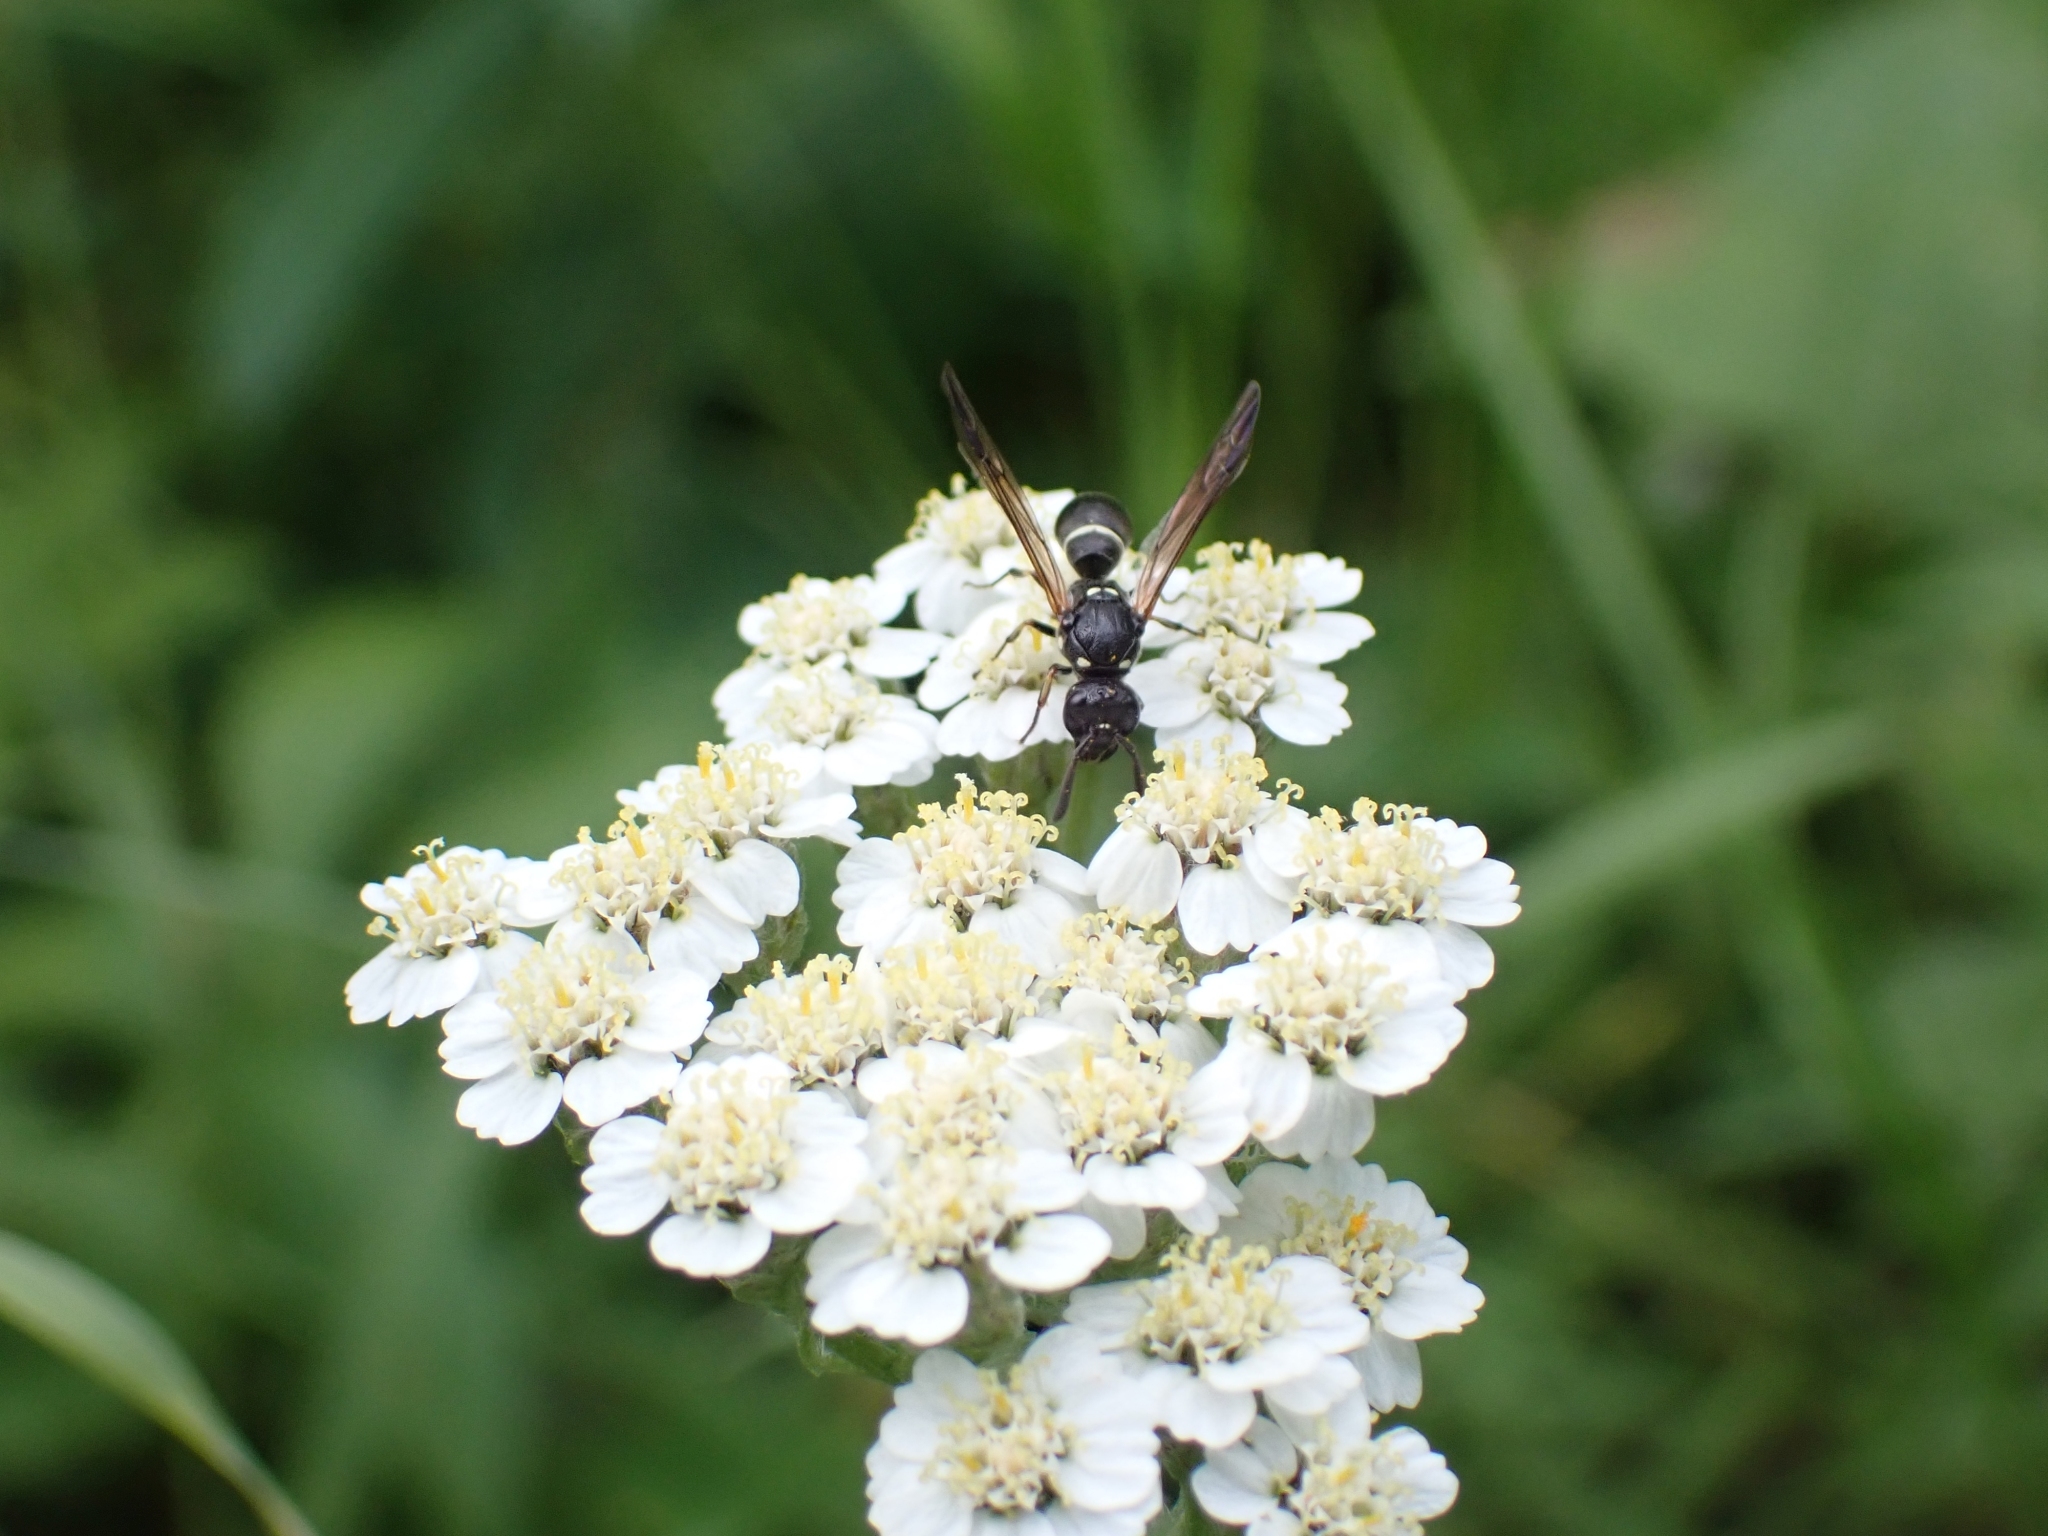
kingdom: Animalia
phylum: Arthropoda
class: Insecta
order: Hymenoptera
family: Eumenidae
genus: Symmorphus
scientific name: Symmorphus
